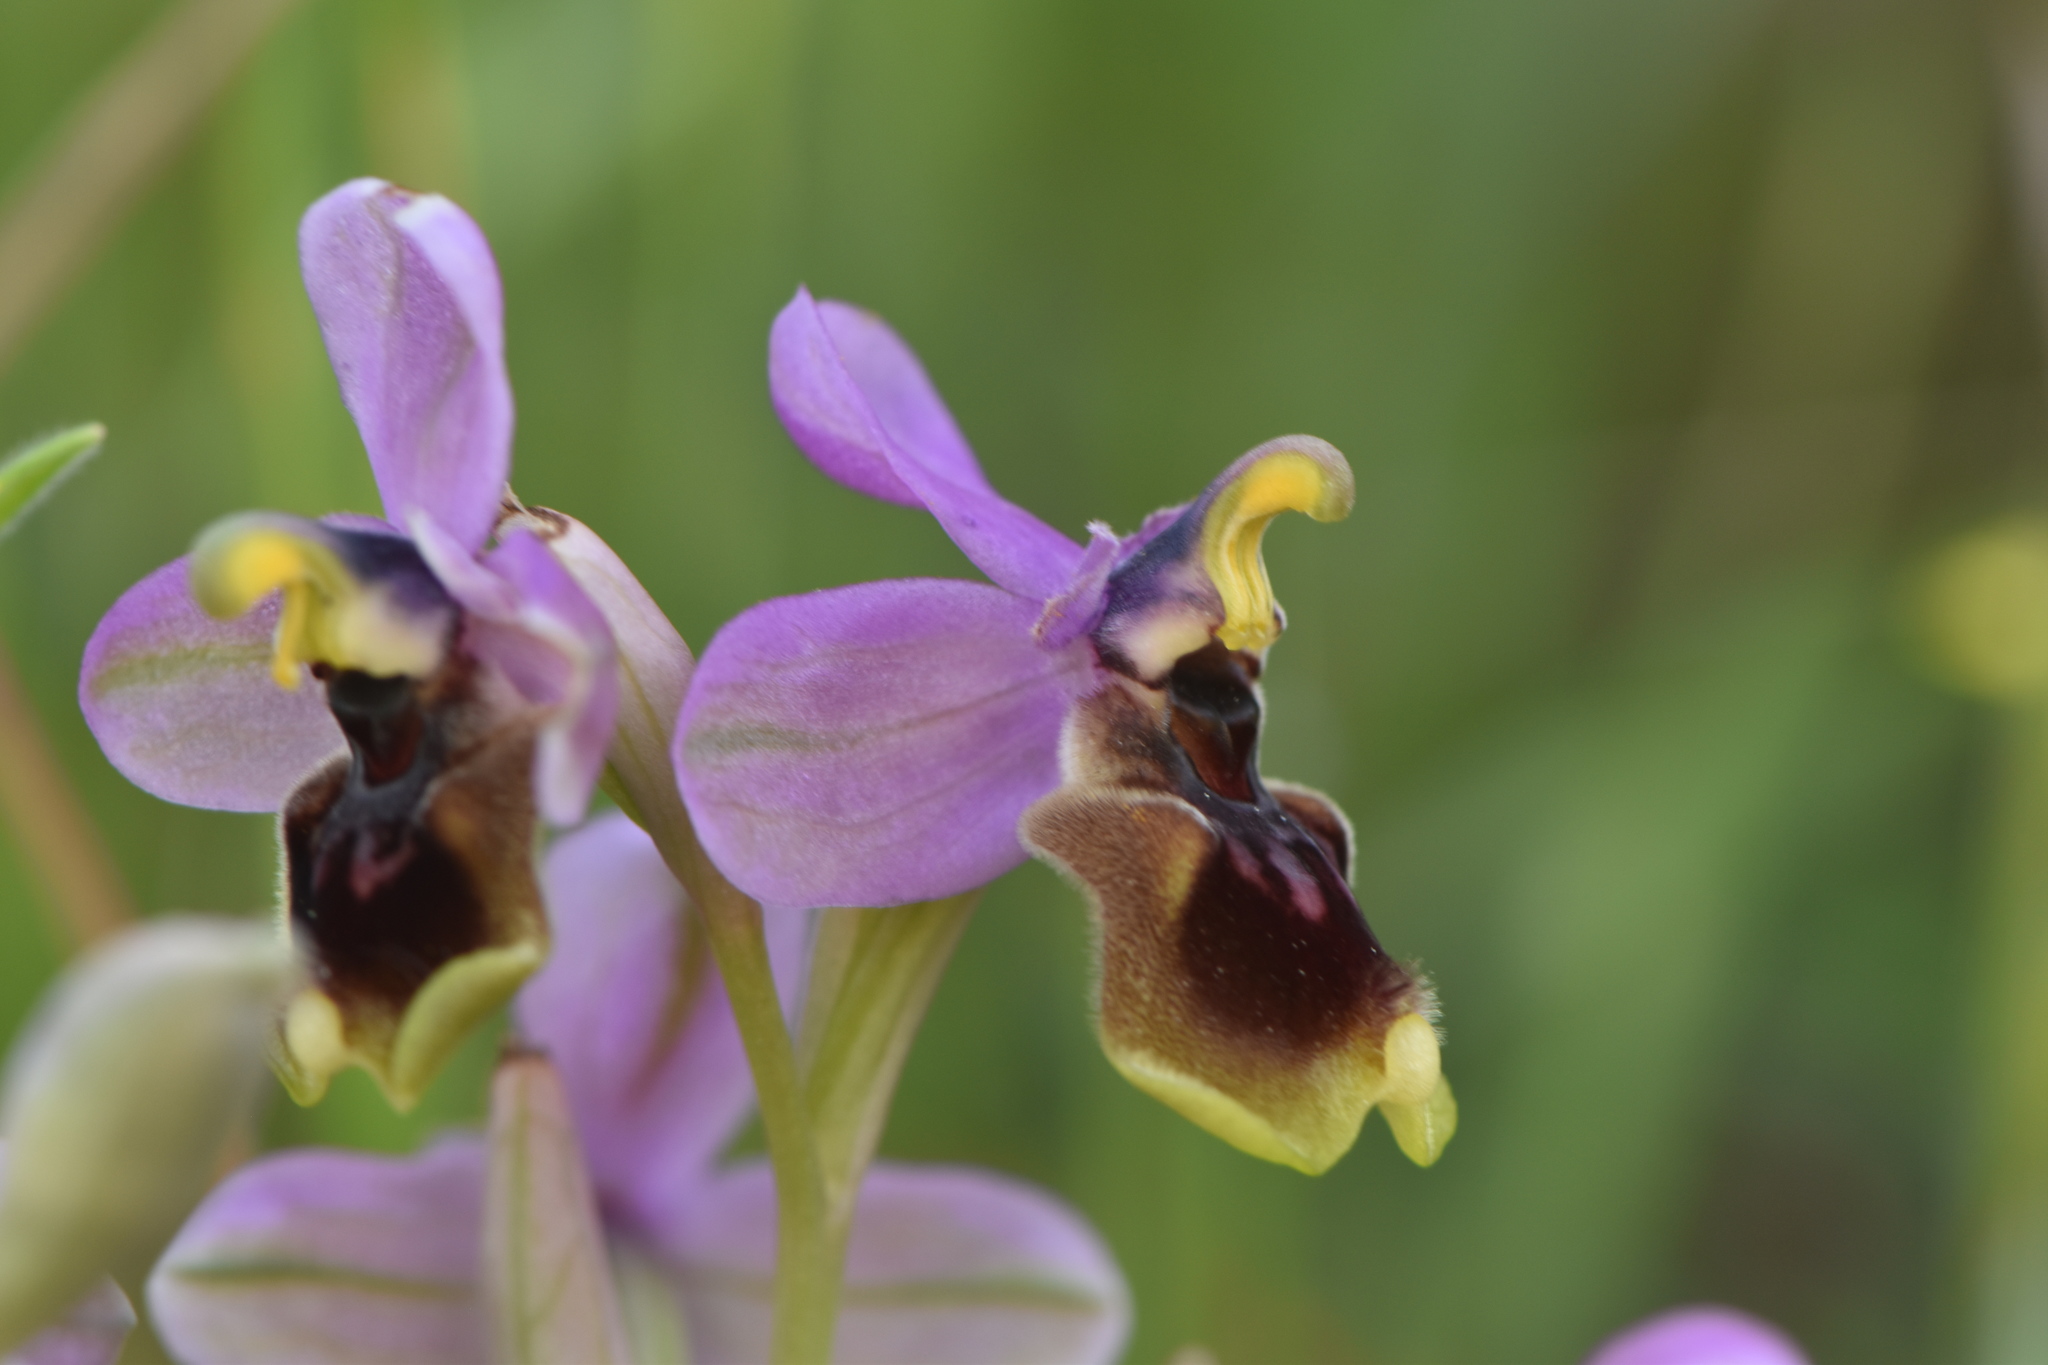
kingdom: Plantae
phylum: Tracheophyta
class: Liliopsida
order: Asparagales
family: Orchidaceae
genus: Ophrys
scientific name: Ophrys tenthredinifera
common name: Sawfly orchid
